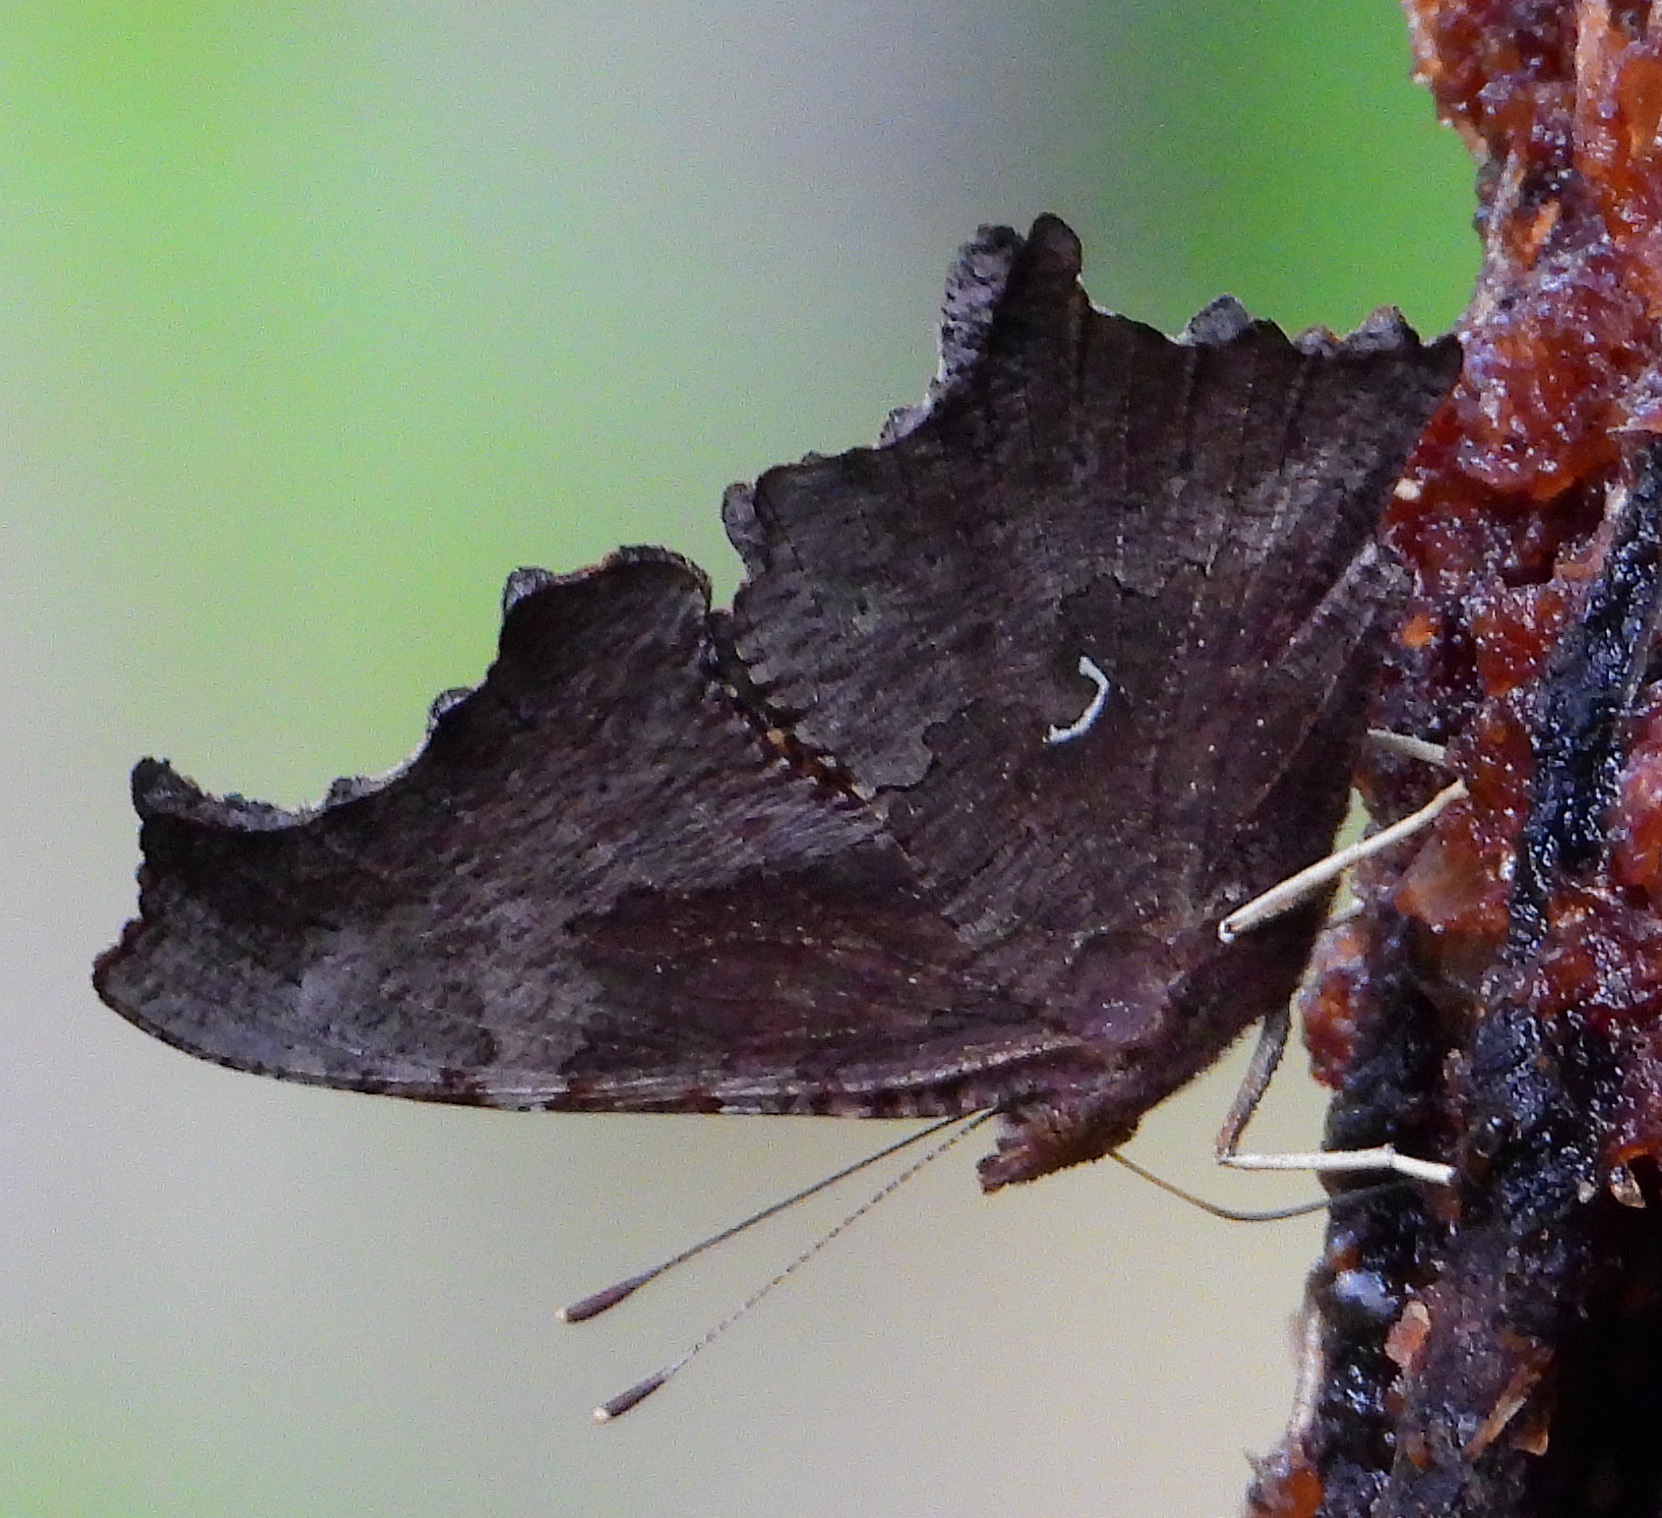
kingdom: Animalia
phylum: Arthropoda
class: Insecta
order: Lepidoptera
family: Nymphalidae
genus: Polygonia
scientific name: Polygonia comma
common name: Eastern comma
